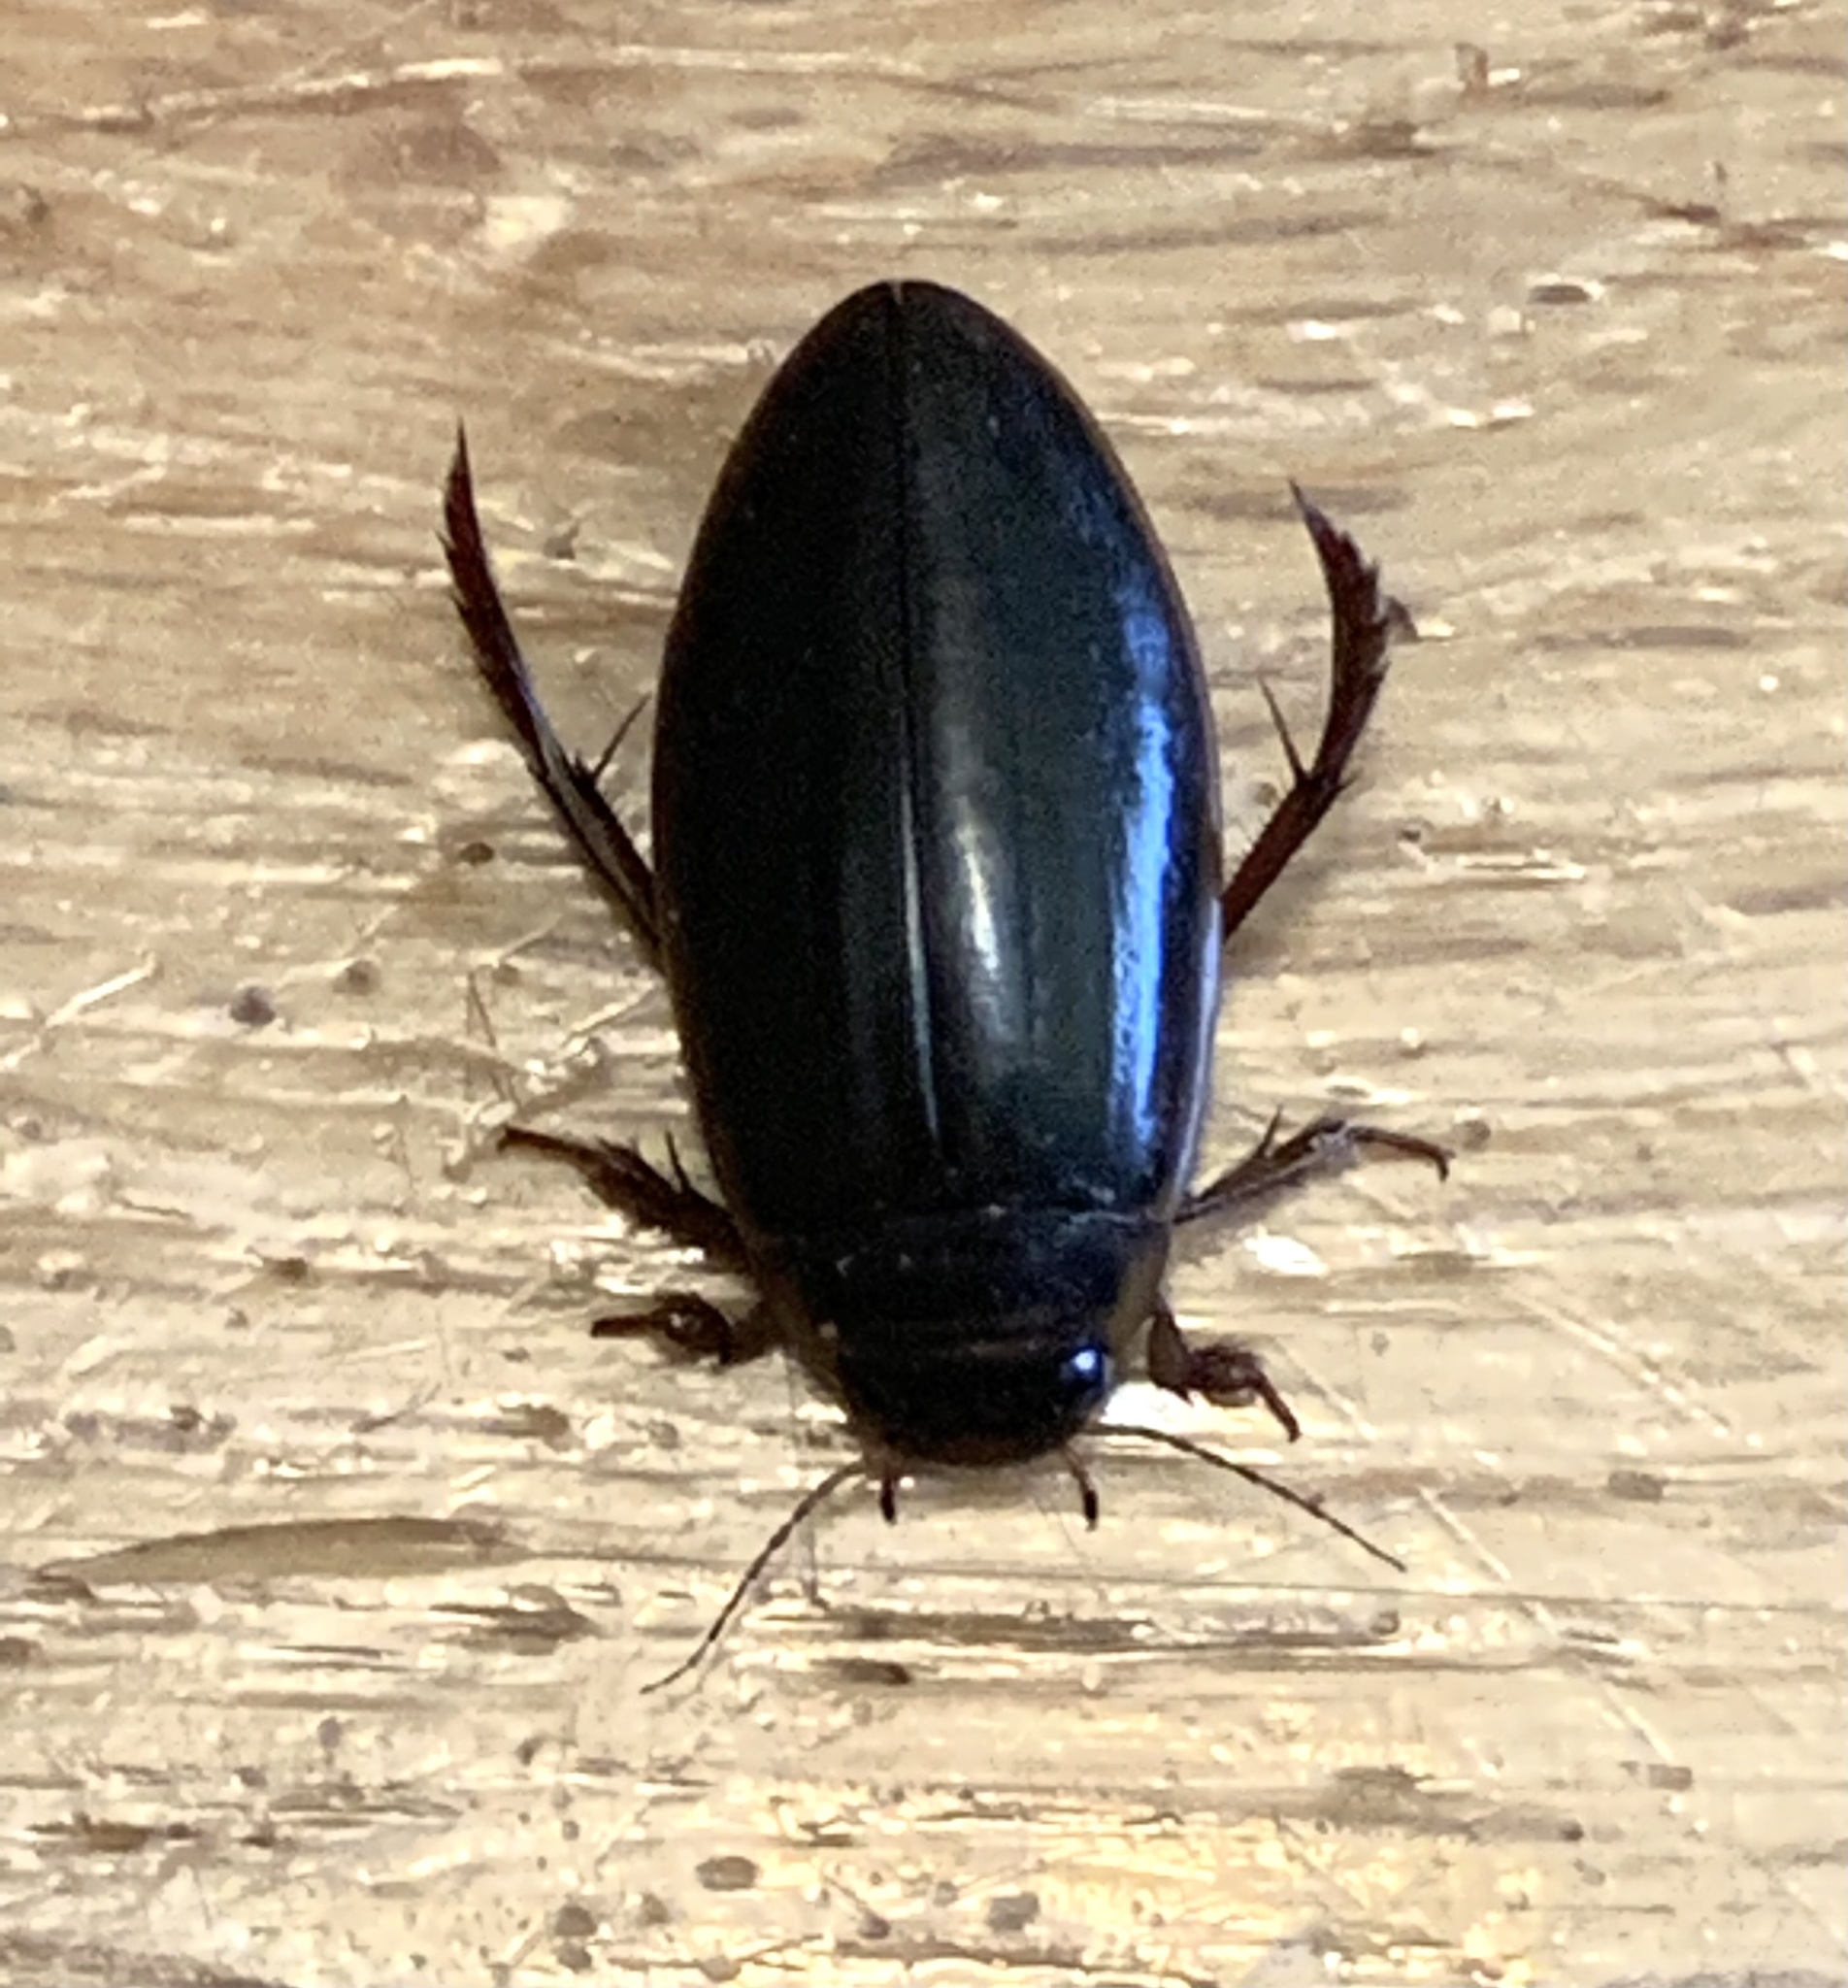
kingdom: Animalia
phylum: Arthropoda
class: Insecta
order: Coleoptera
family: Dytiscidae
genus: Colymbetes
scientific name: Colymbetes
